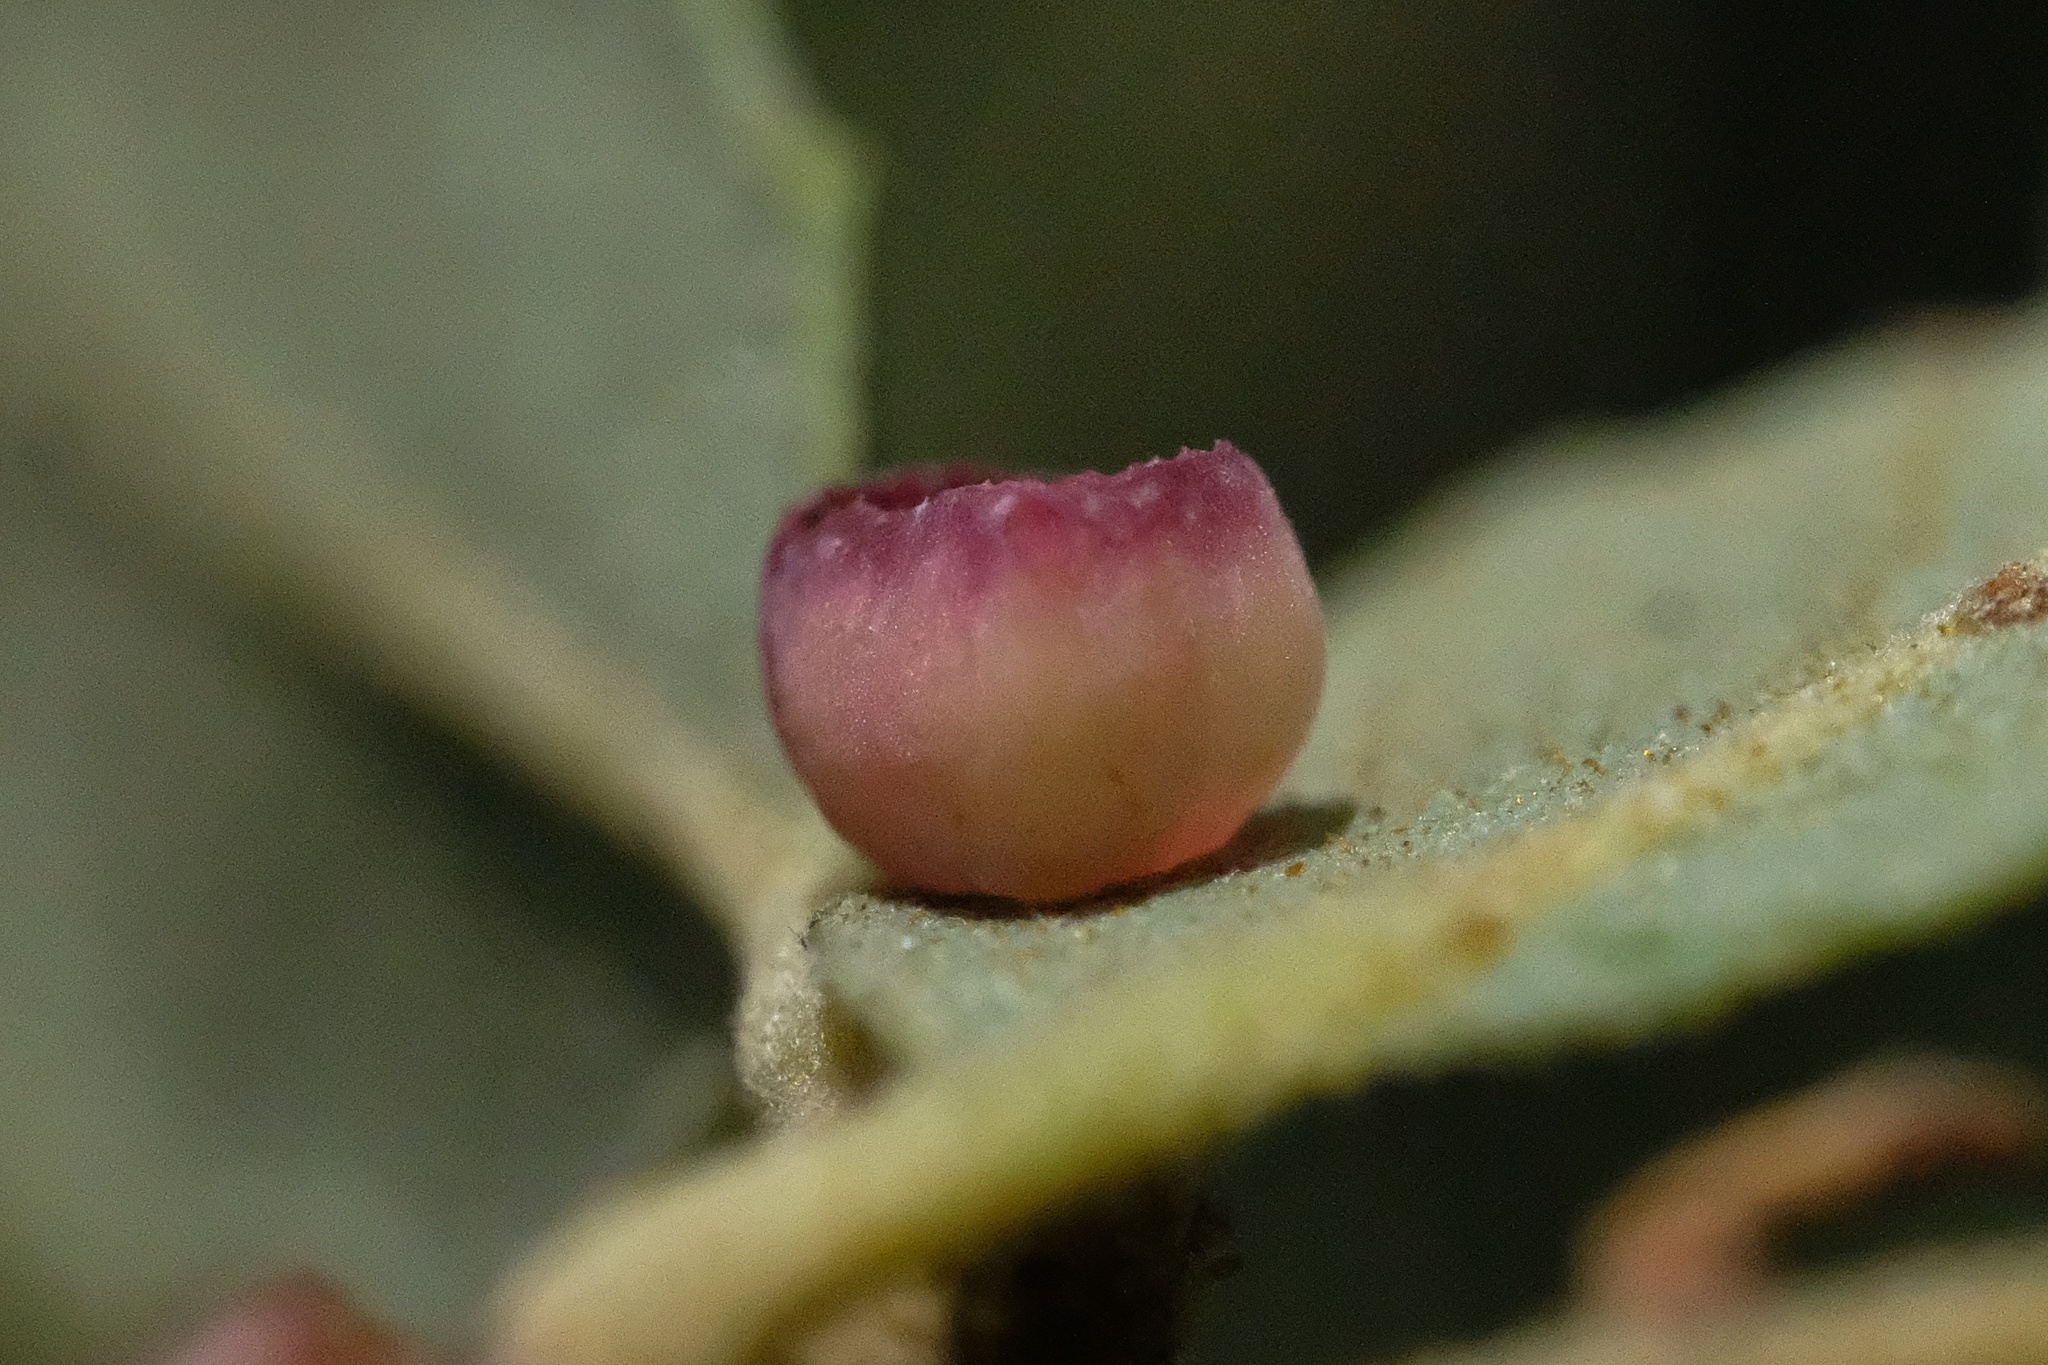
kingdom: Animalia
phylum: Arthropoda
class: Insecta
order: Hymenoptera
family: Cynipidae
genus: Andricus
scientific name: Andricus
